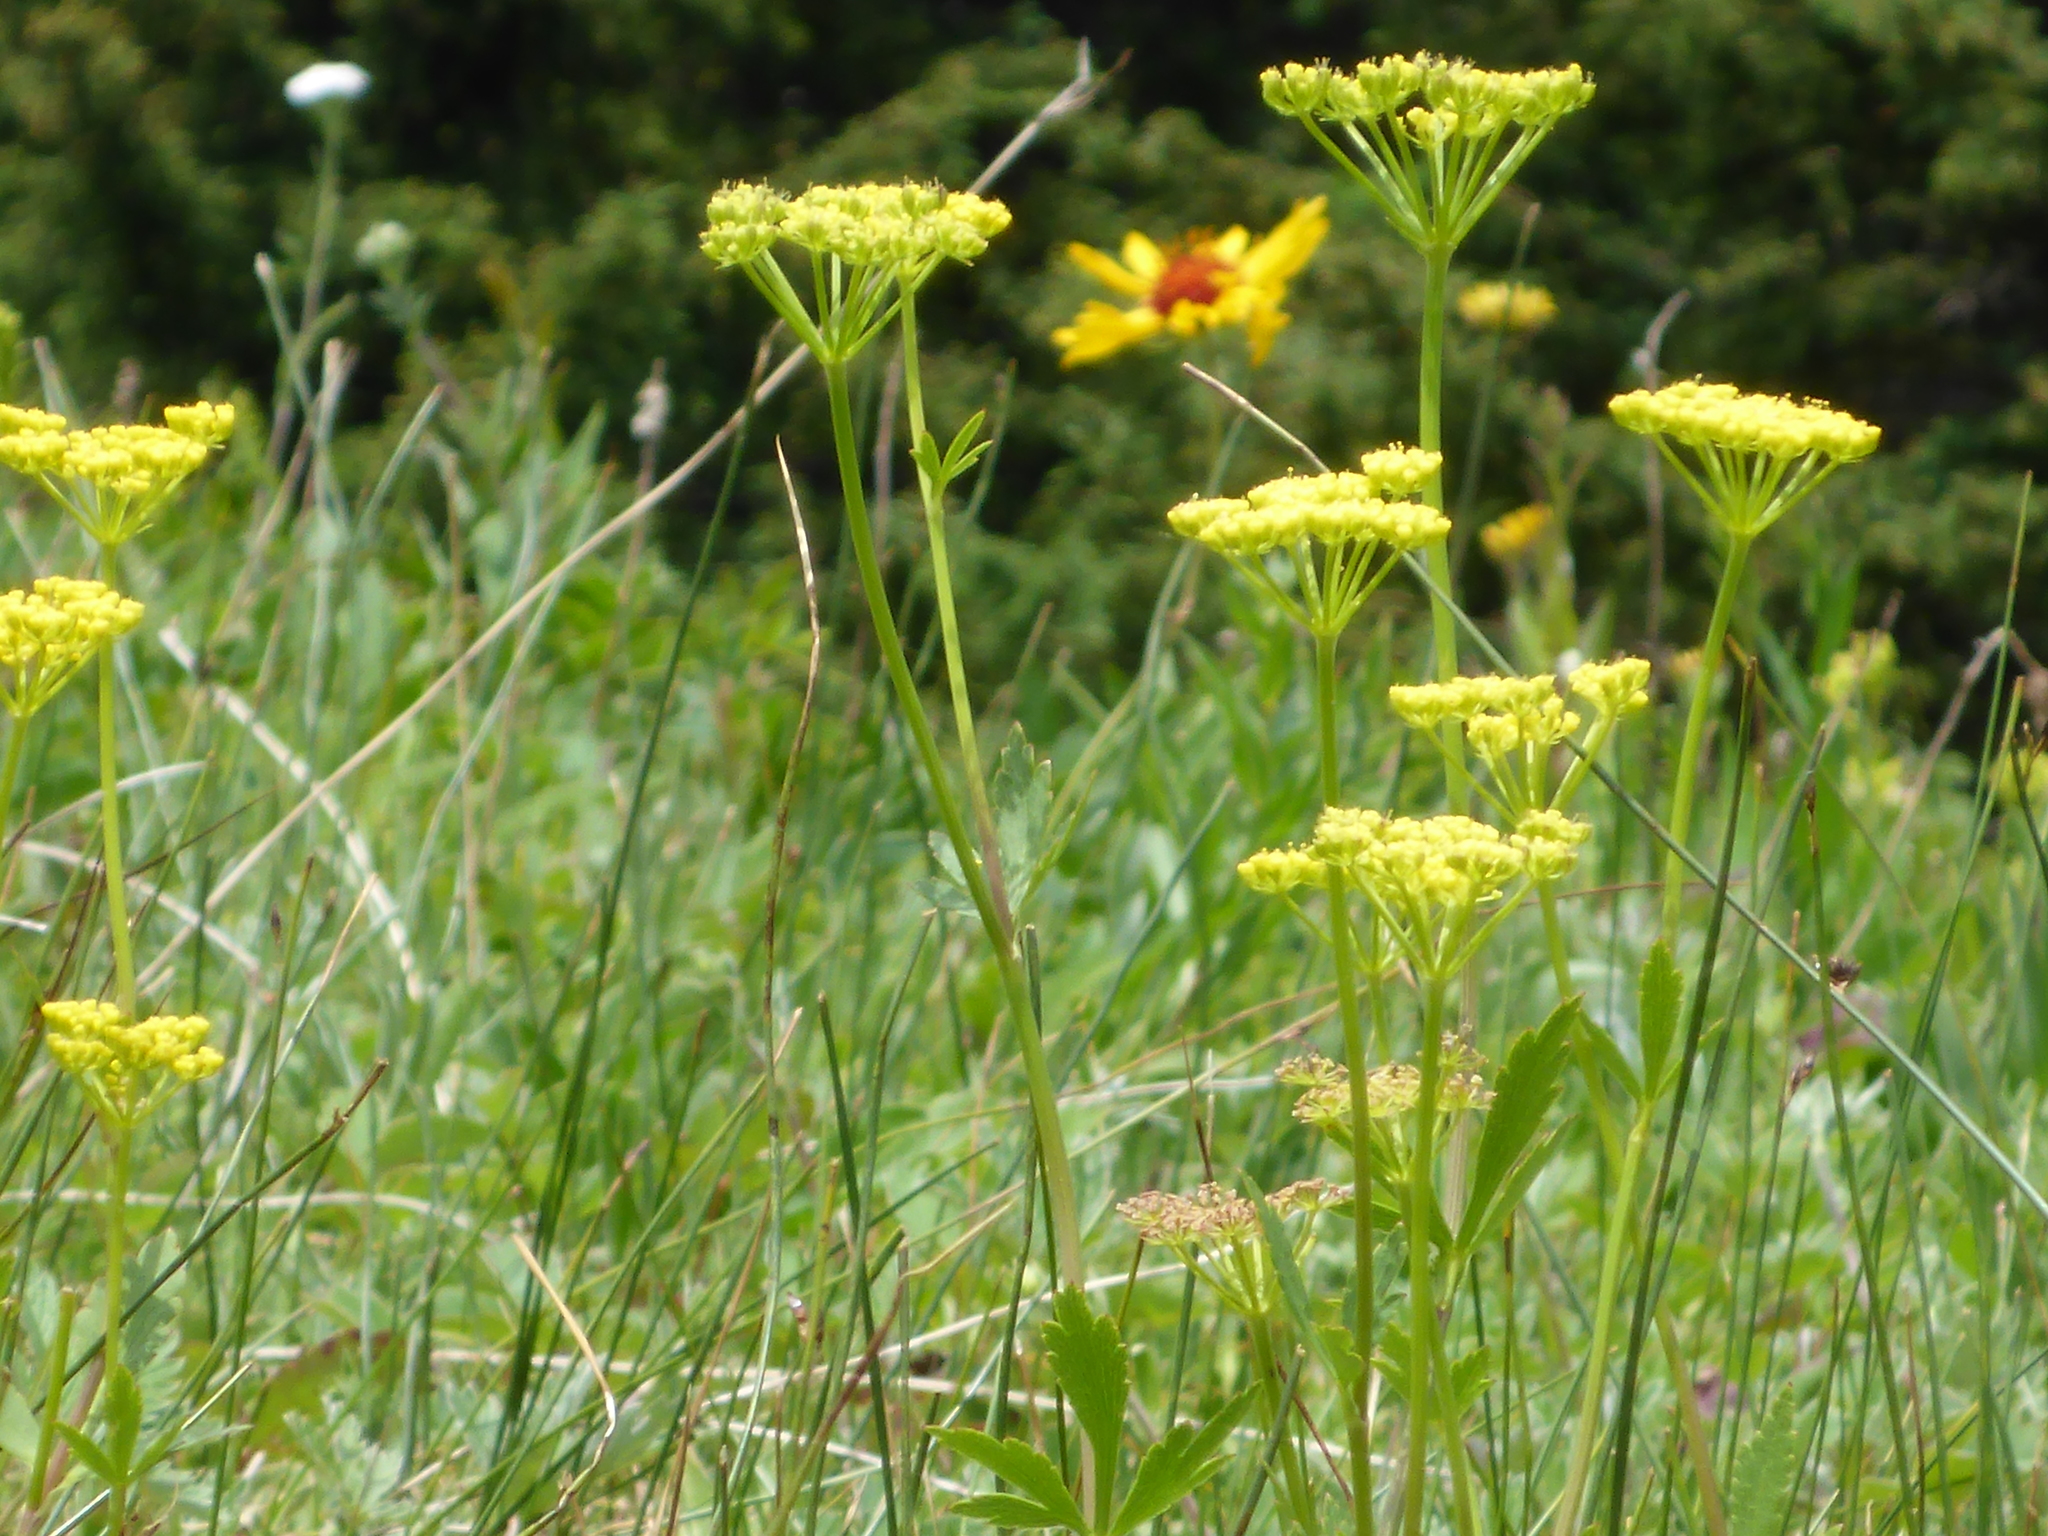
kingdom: Plantae
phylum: Tracheophyta
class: Magnoliopsida
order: Apiales
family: Apiaceae
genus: Zizia
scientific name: Zizia aptera
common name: Heart-leaved alexanders
